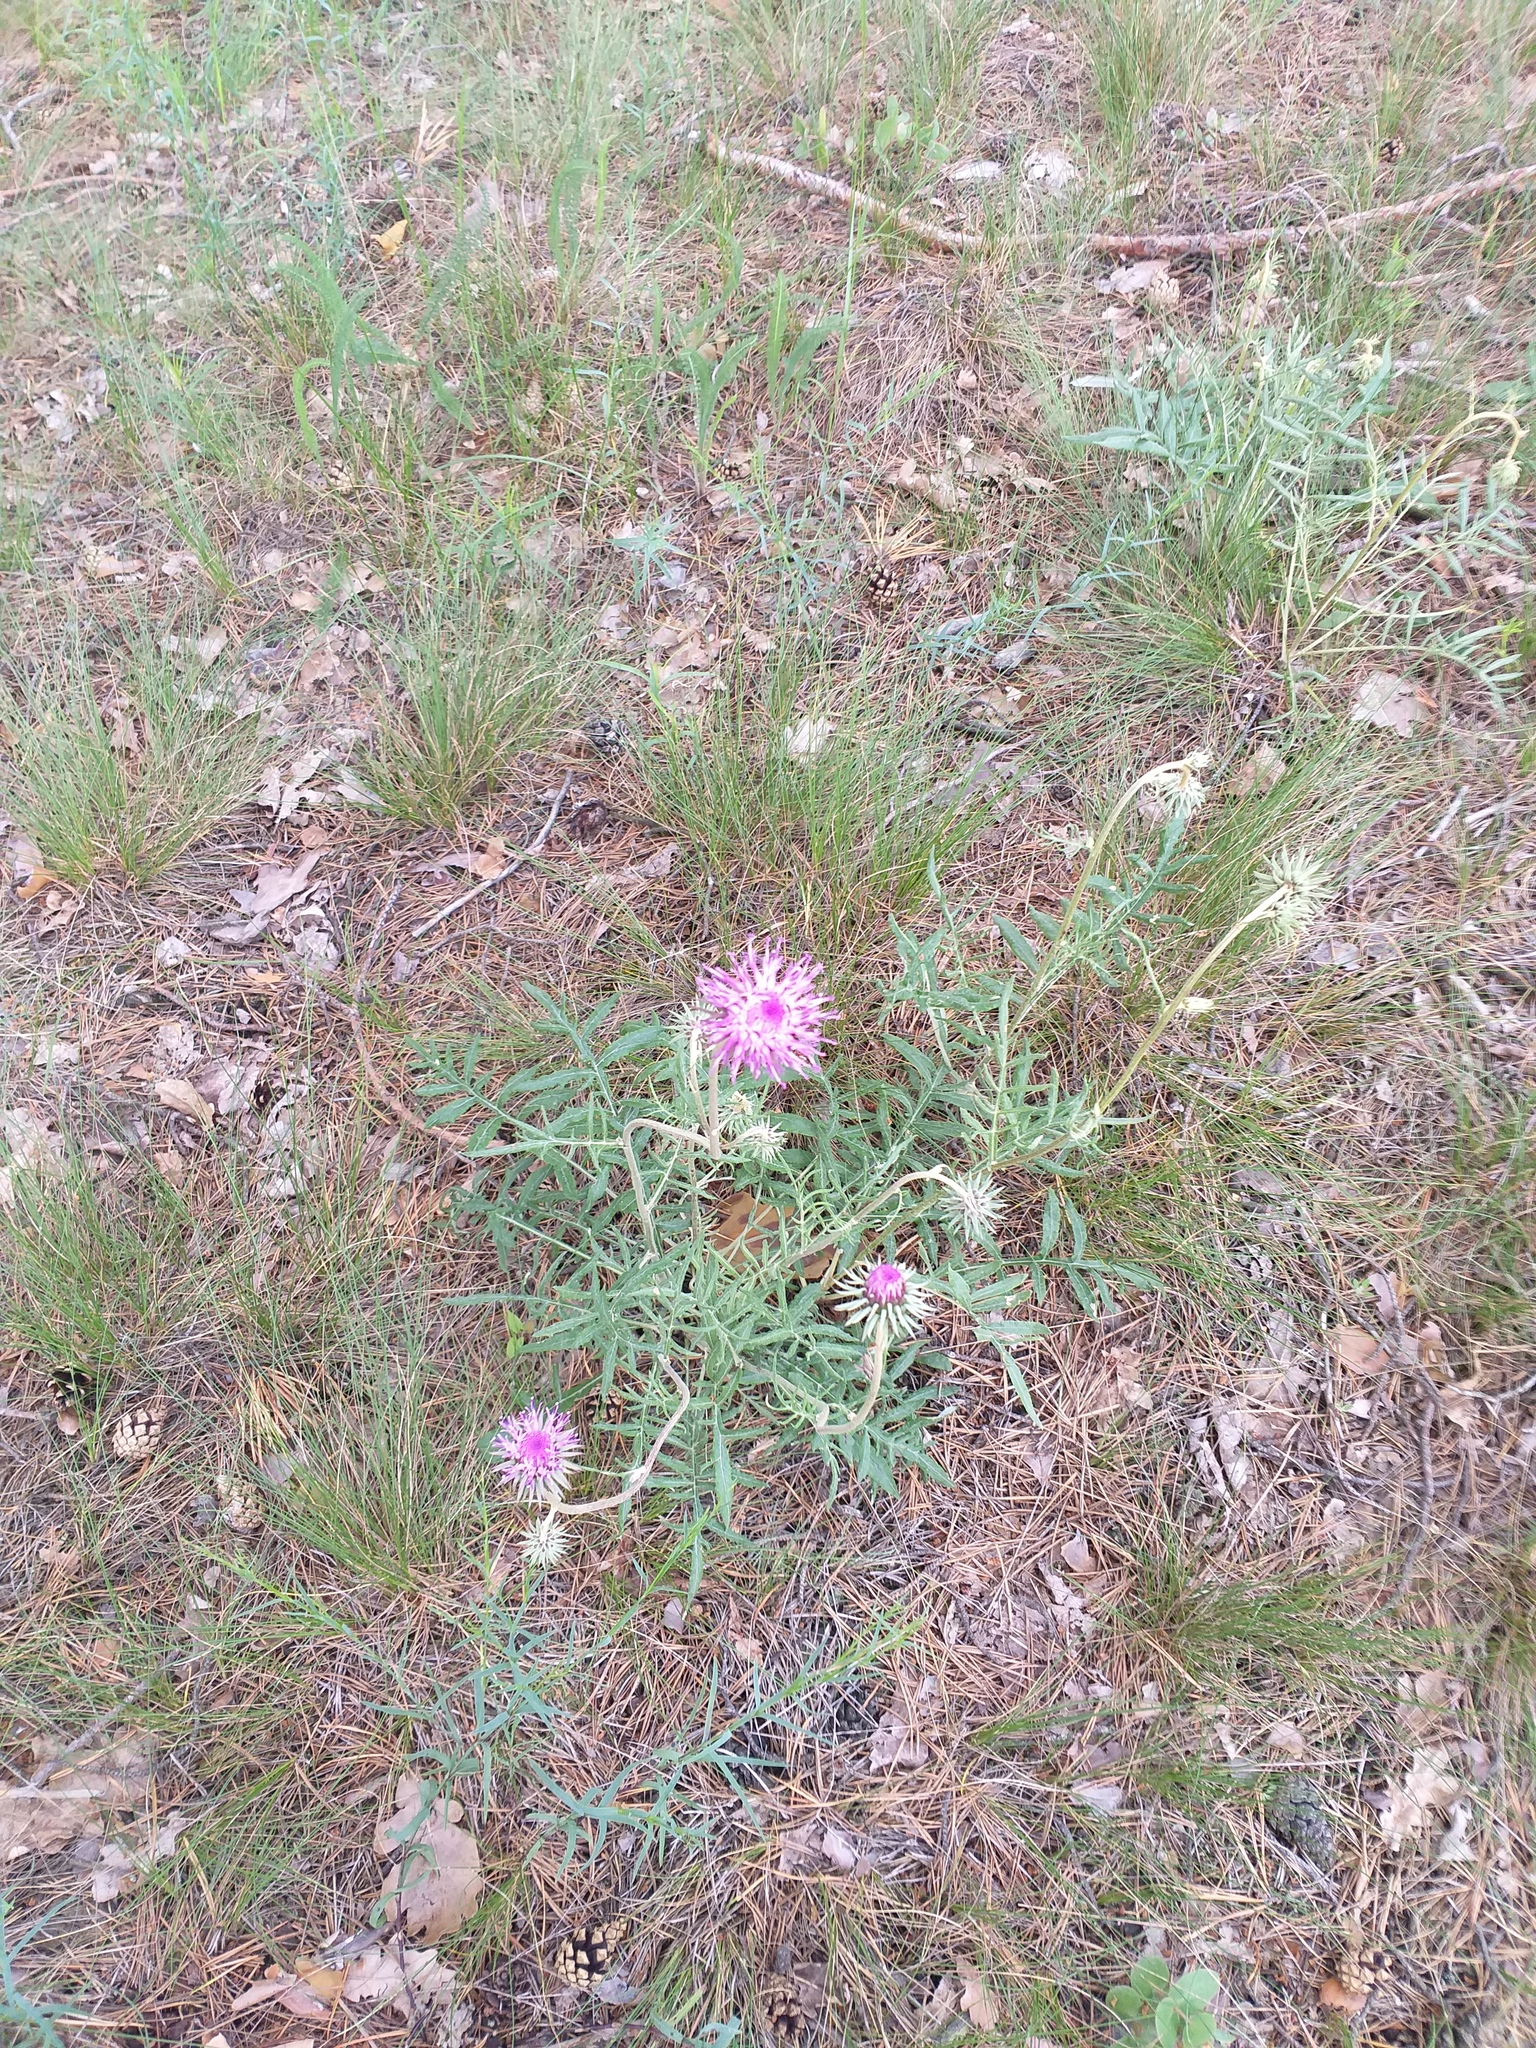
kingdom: Plantae
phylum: Tracheophyta
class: Magnoliopsida
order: Asterales
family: Asteraceae
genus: Jurinea
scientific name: Jurinea cyanoides
